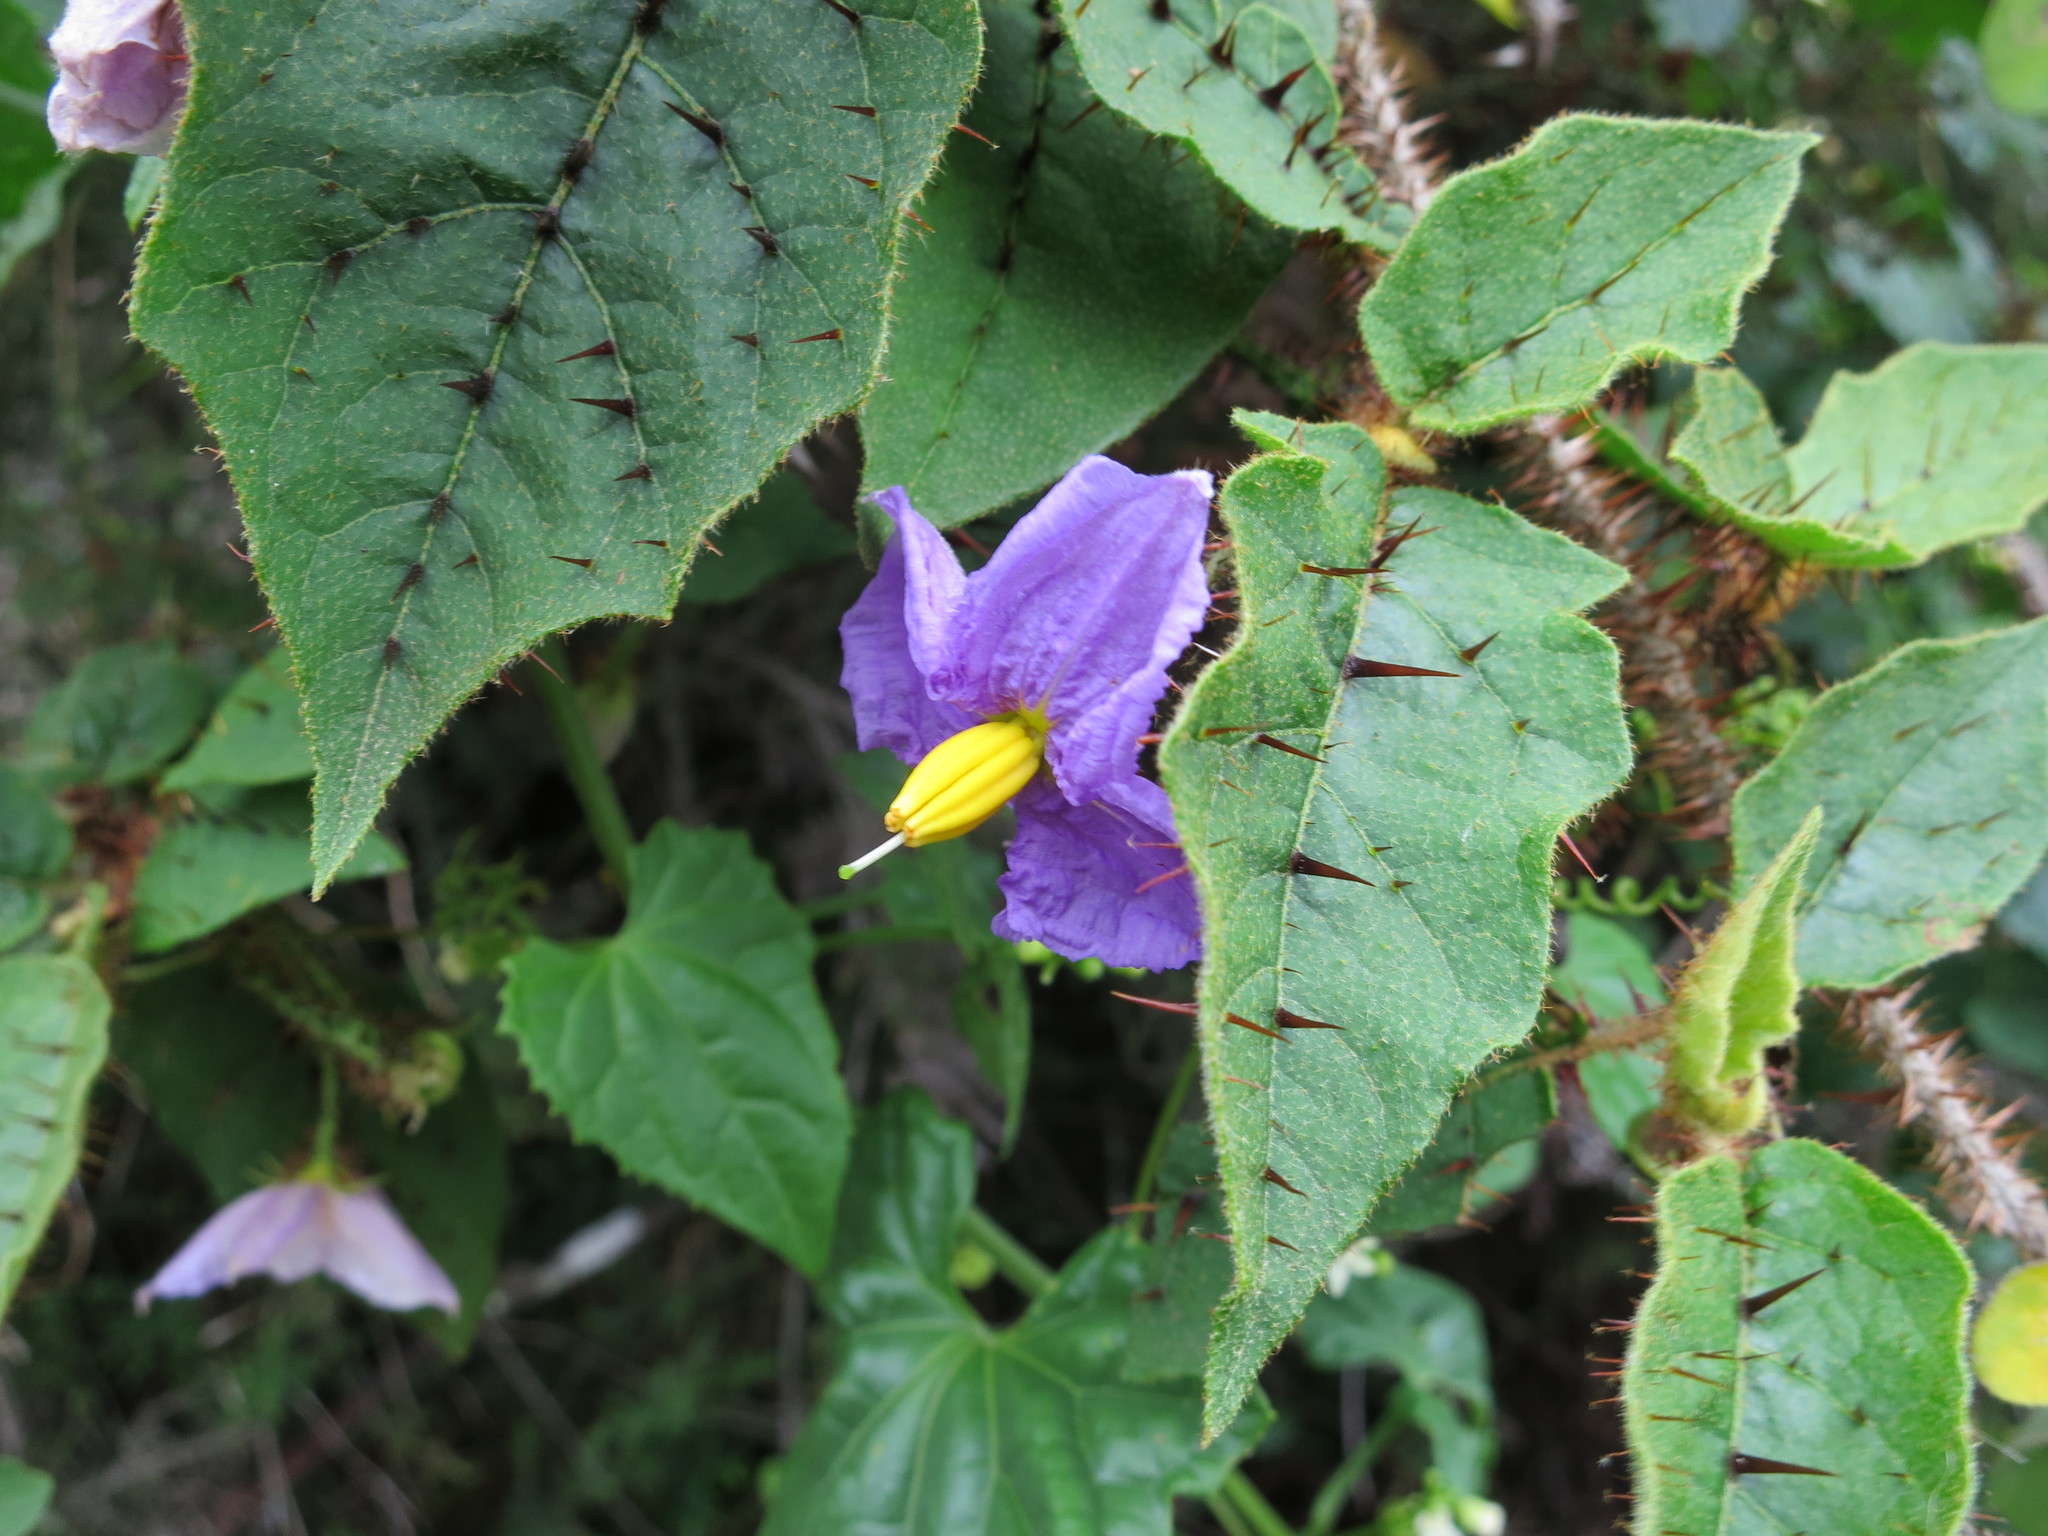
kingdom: Plantae
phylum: Tracheophyta
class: Magnoliopsida
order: Solanales
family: Solanaceae
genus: Solanum
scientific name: Solanum myoxotrichum
